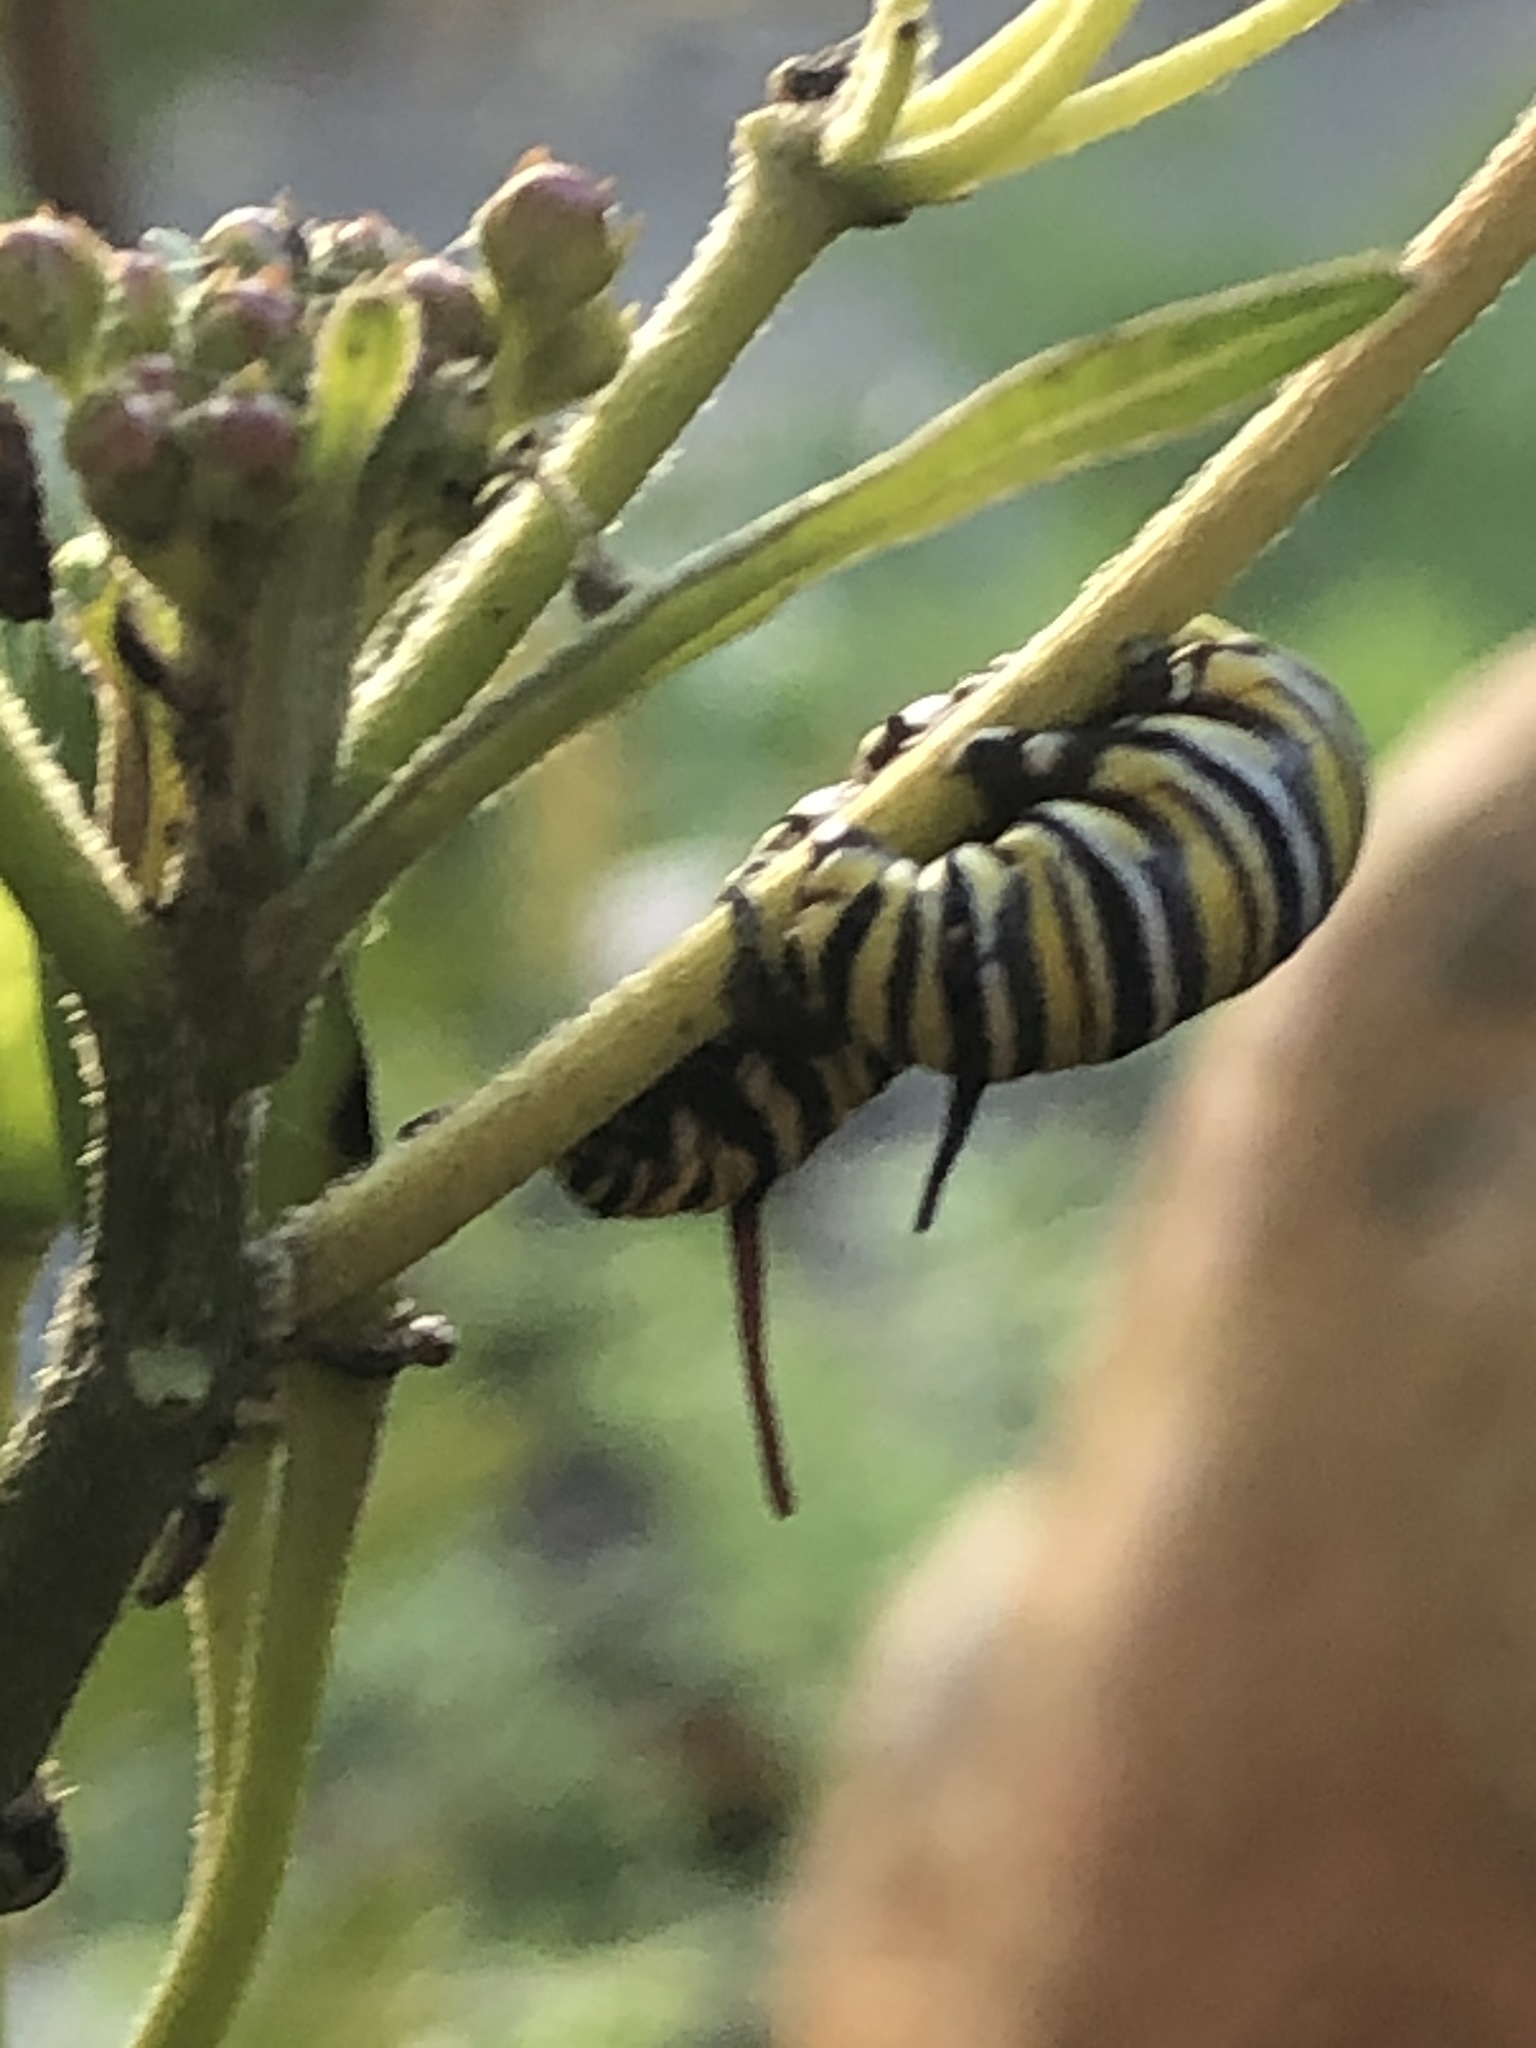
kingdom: Animalia
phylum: Arthropoda
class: Insecta
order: Lepidoptera
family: Nymphalidae
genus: Danaus
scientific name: Danaus plexippus
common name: Monarch
